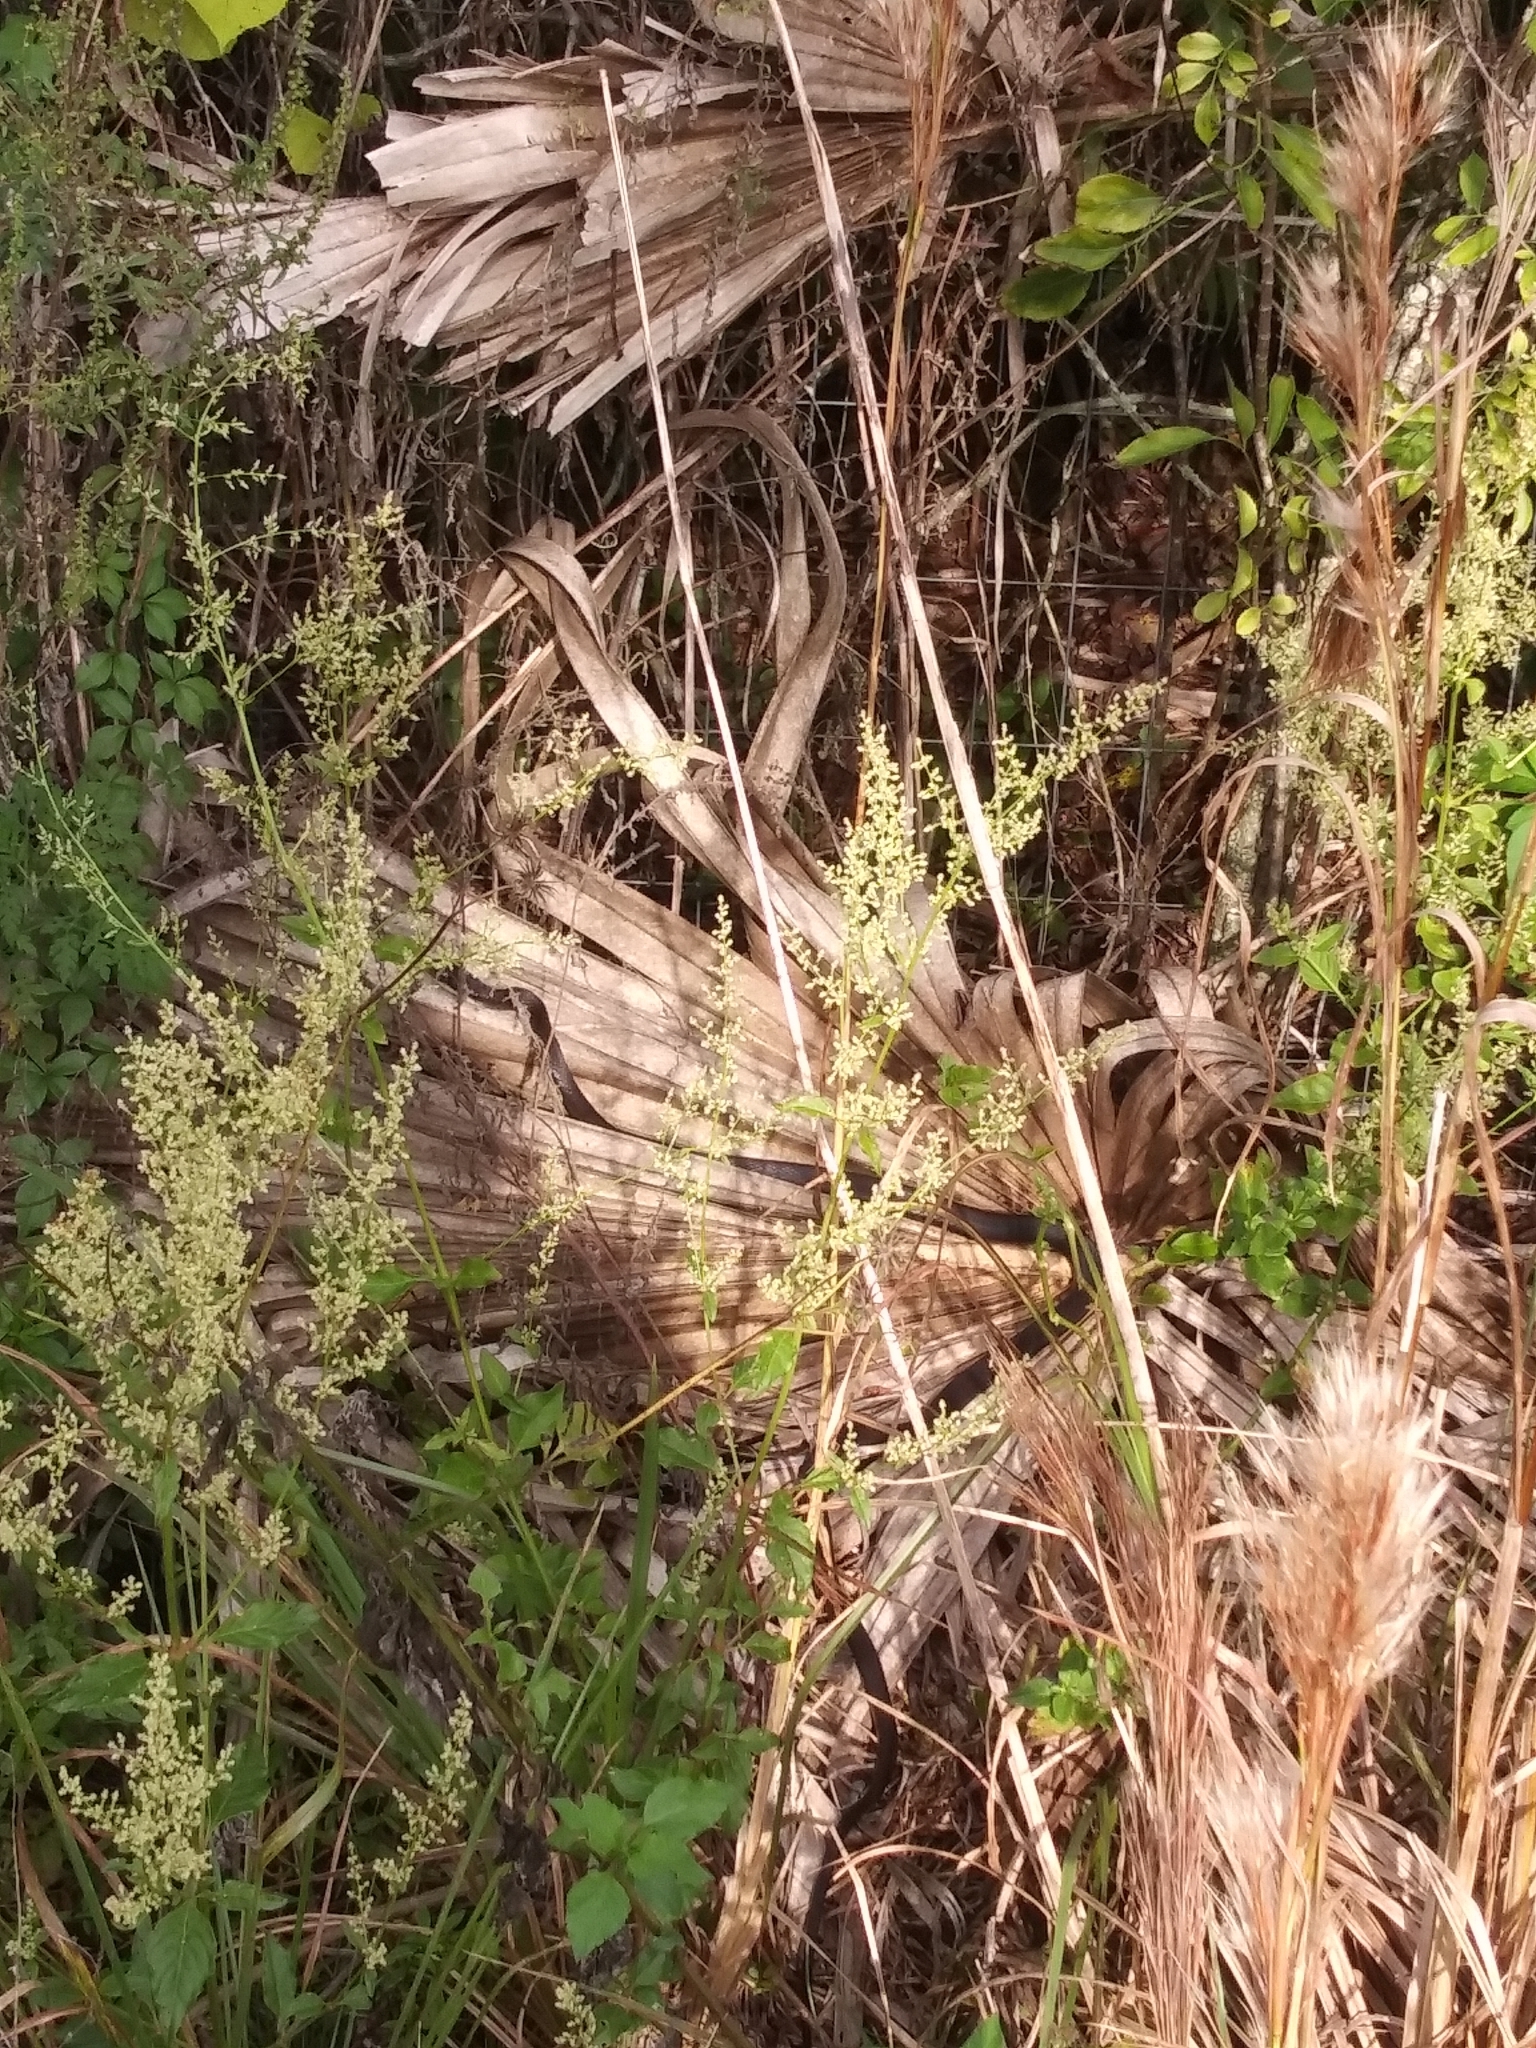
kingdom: Animalia
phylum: Chordata
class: Squamata
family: Colubridae
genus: Coluber
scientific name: Coluber constrictor
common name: Eastern racer
